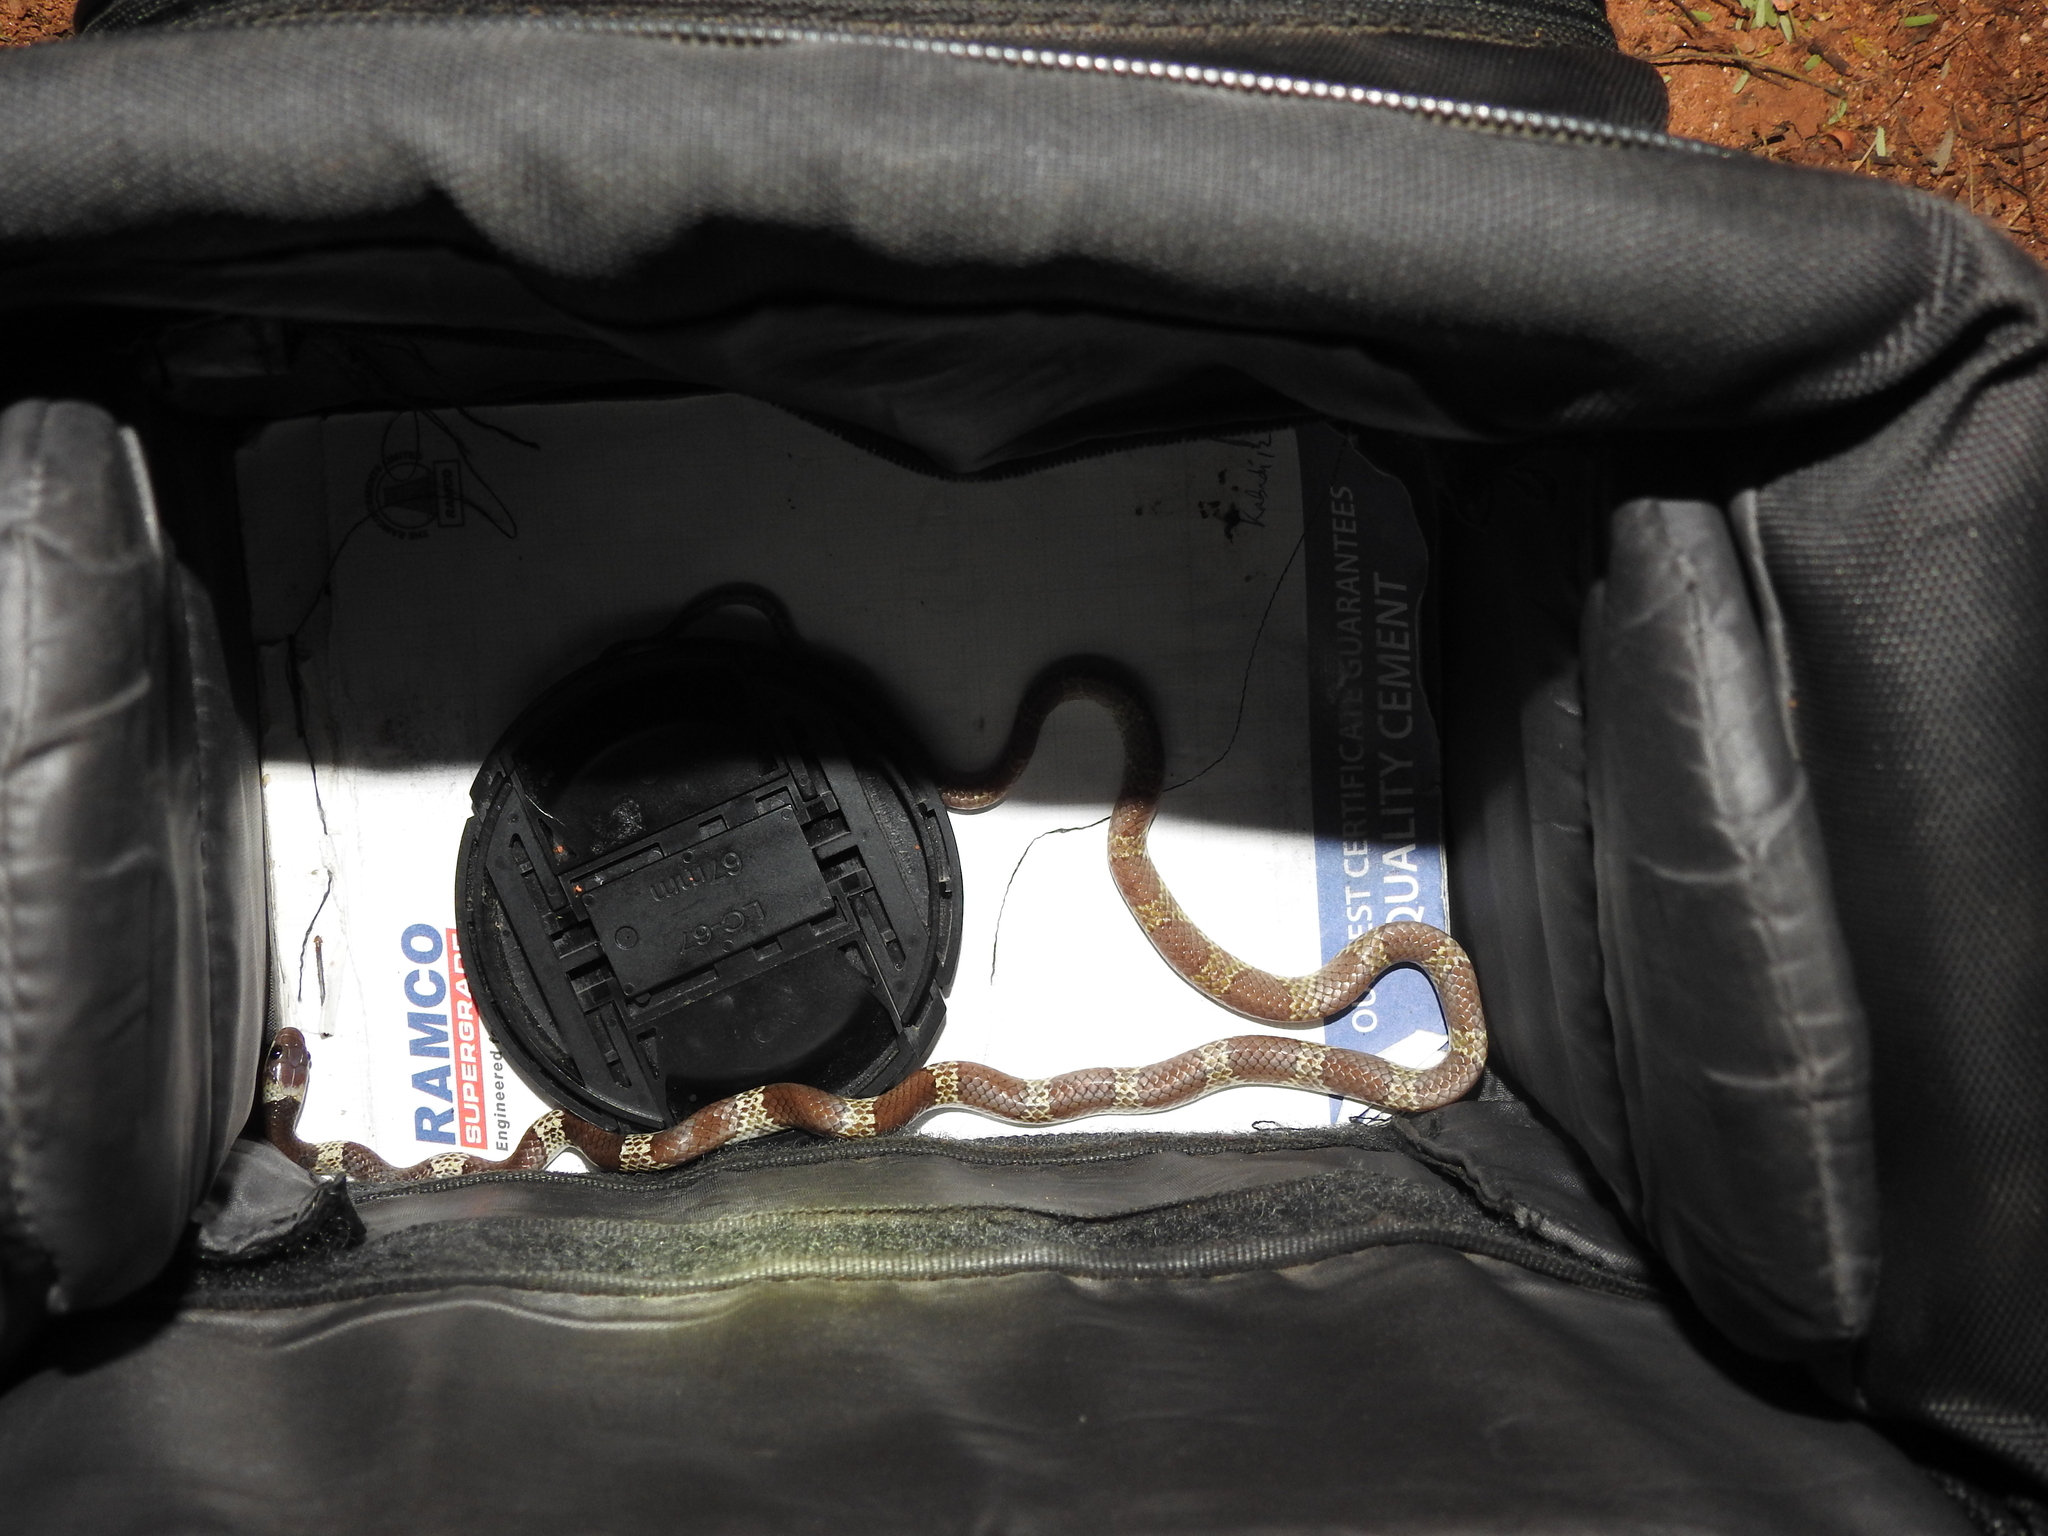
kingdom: Animalia
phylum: Chordata
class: Squamata
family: Colubridae
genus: Lycodon
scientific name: Lycodon nympha
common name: Vellore bridal snake
